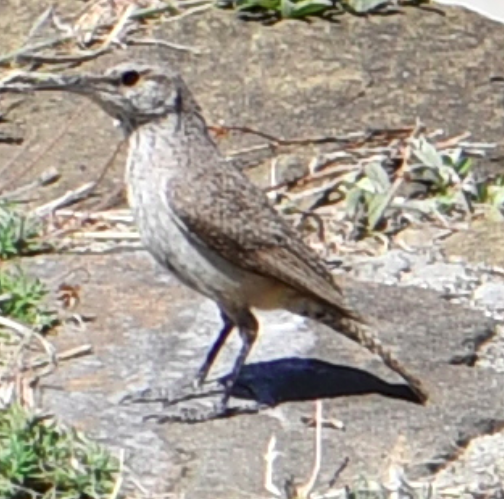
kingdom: Animalia
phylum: Chordata
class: Aves
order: Passeriformes
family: Troglodytidae
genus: Salpinctes
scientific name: Salpinctes obsoletus
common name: Rock wren
